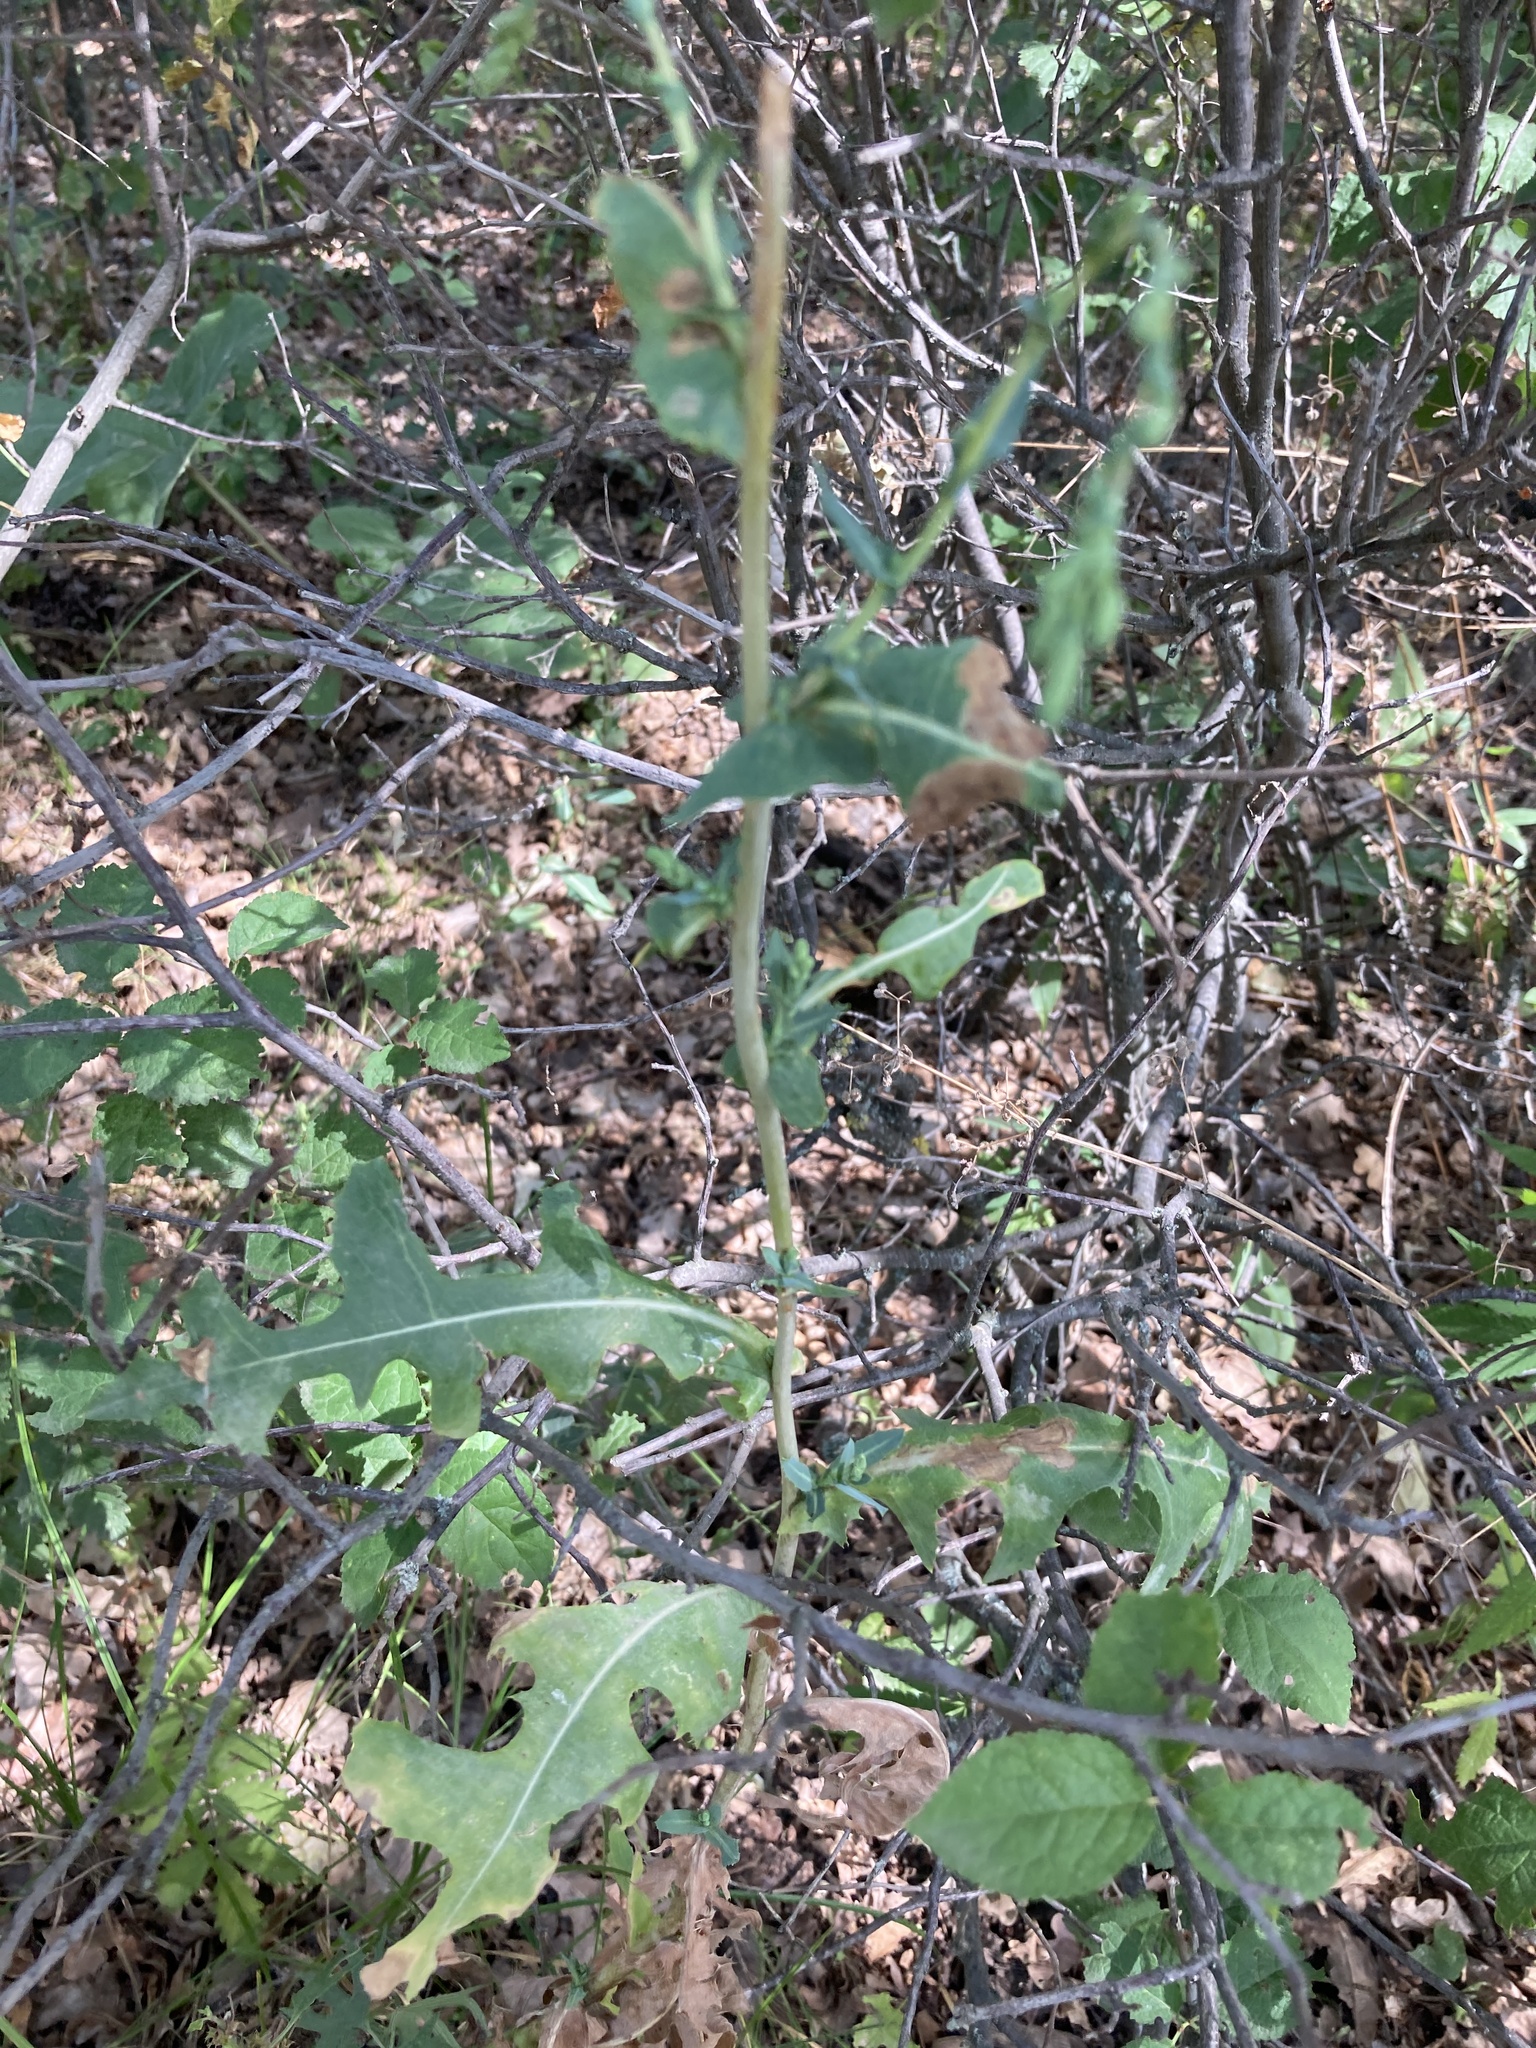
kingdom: Plantae
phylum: Tracheophyta
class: Magnoliopsida
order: Asterales
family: Asteraceae
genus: Lactuca
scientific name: Lactuca serriola
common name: Prickly lettuce
